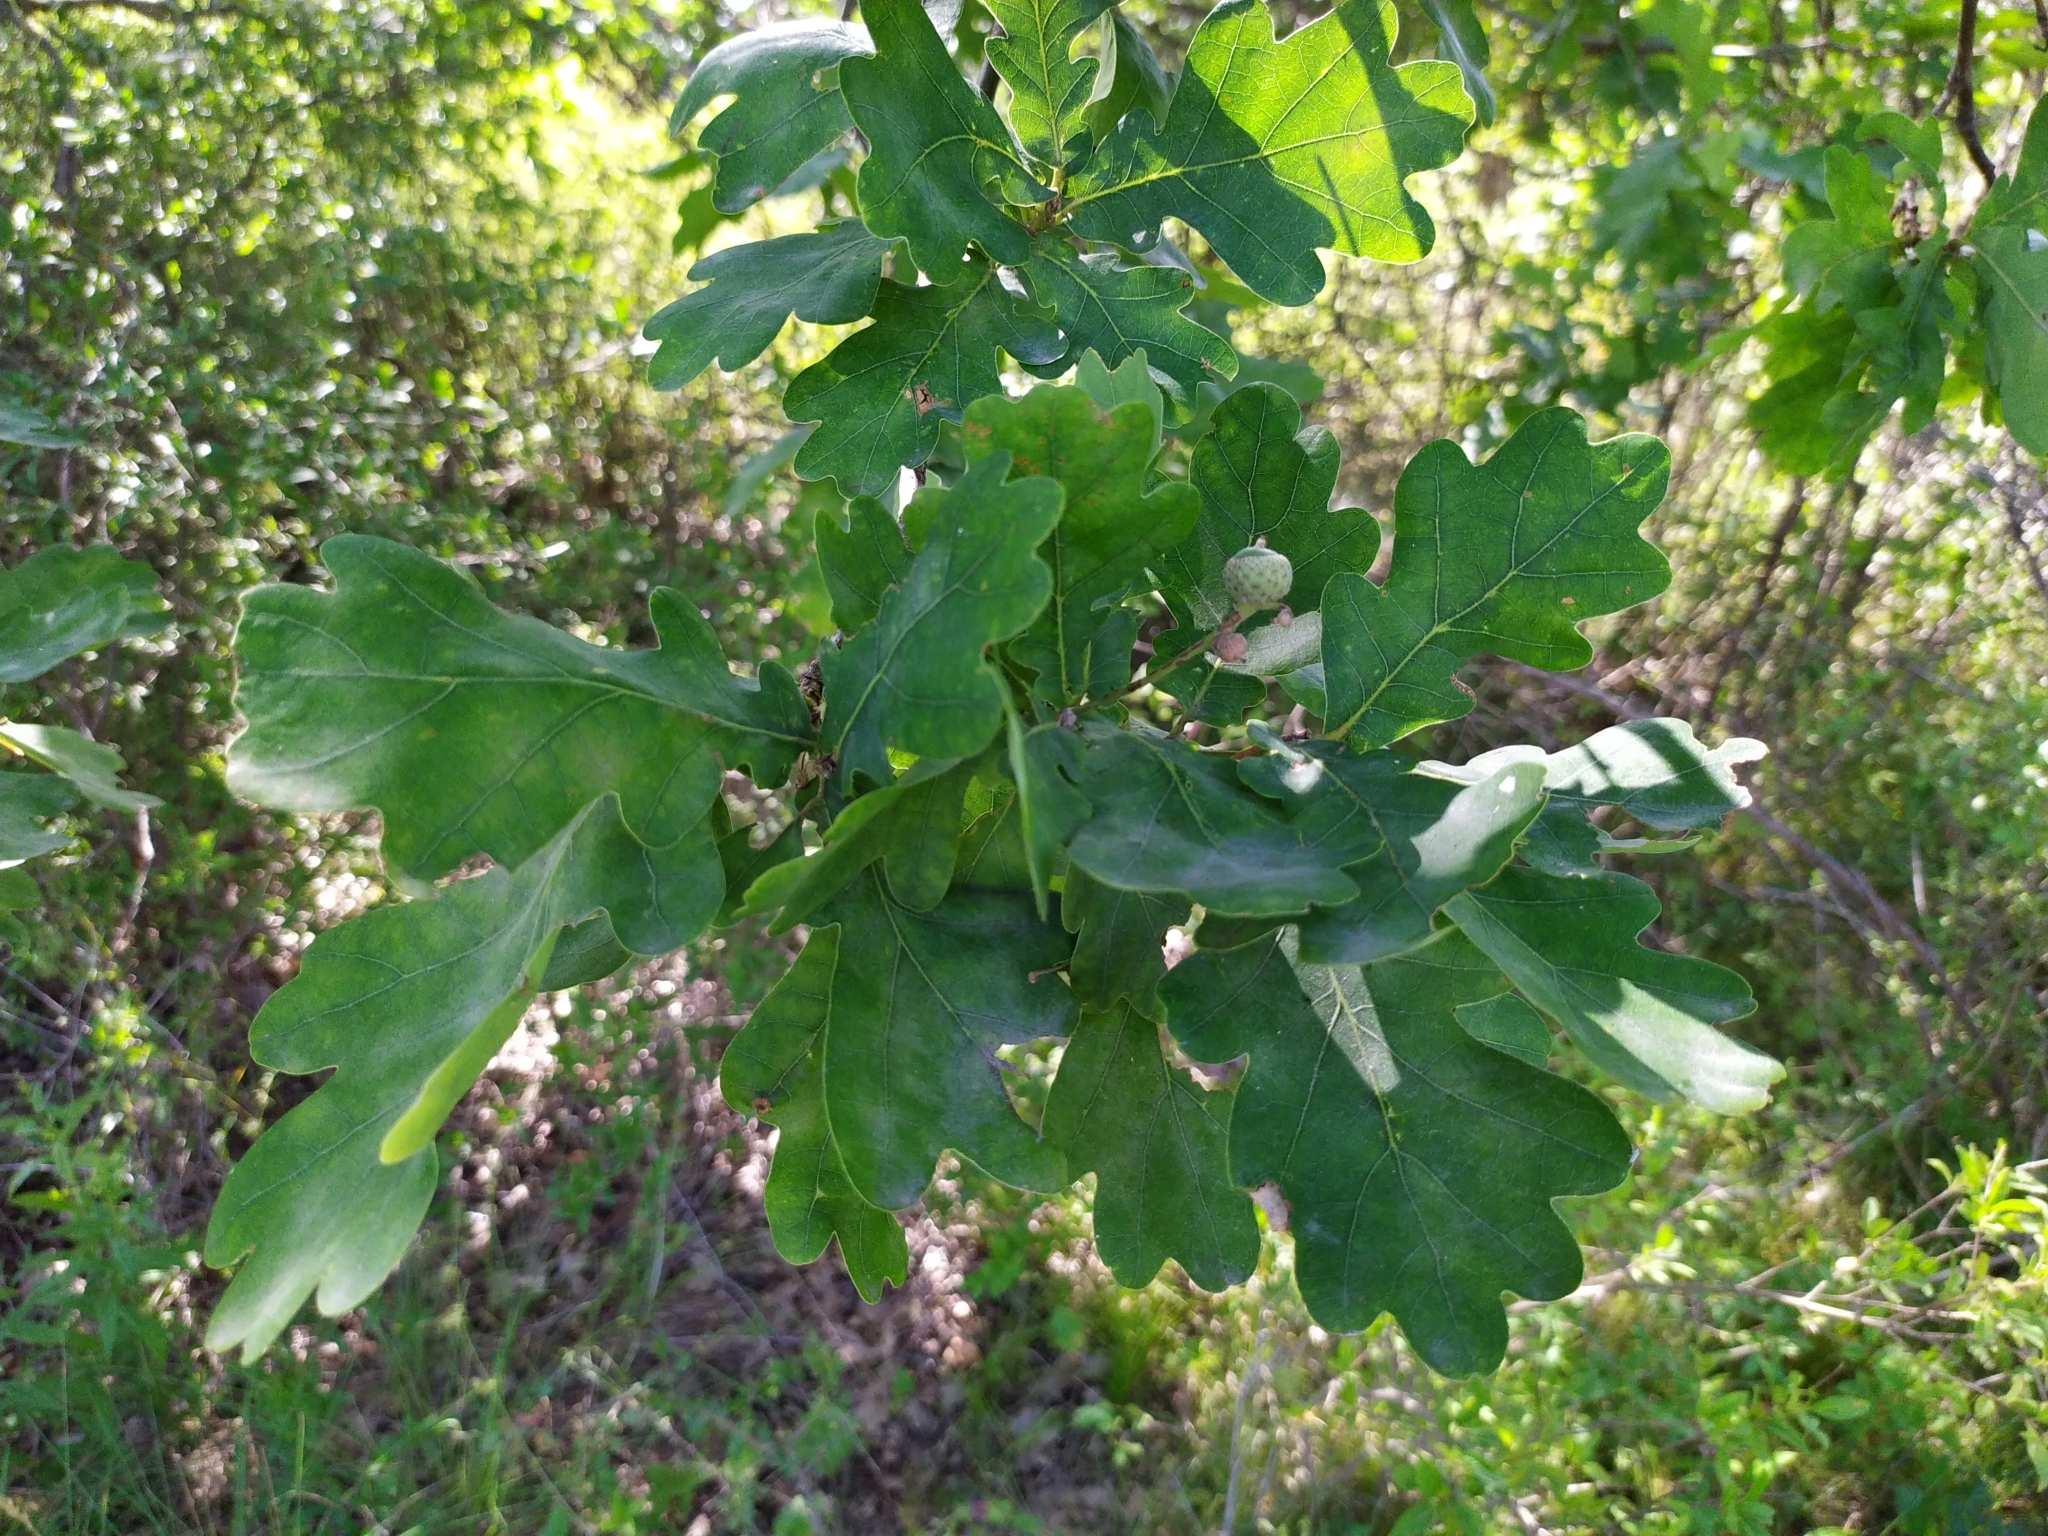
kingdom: Plantae
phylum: Tracheophyta
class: Magnoliopsida
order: Fagales
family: Fagaceae
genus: Quercus
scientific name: Quercus robur
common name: Pedunculate oak
